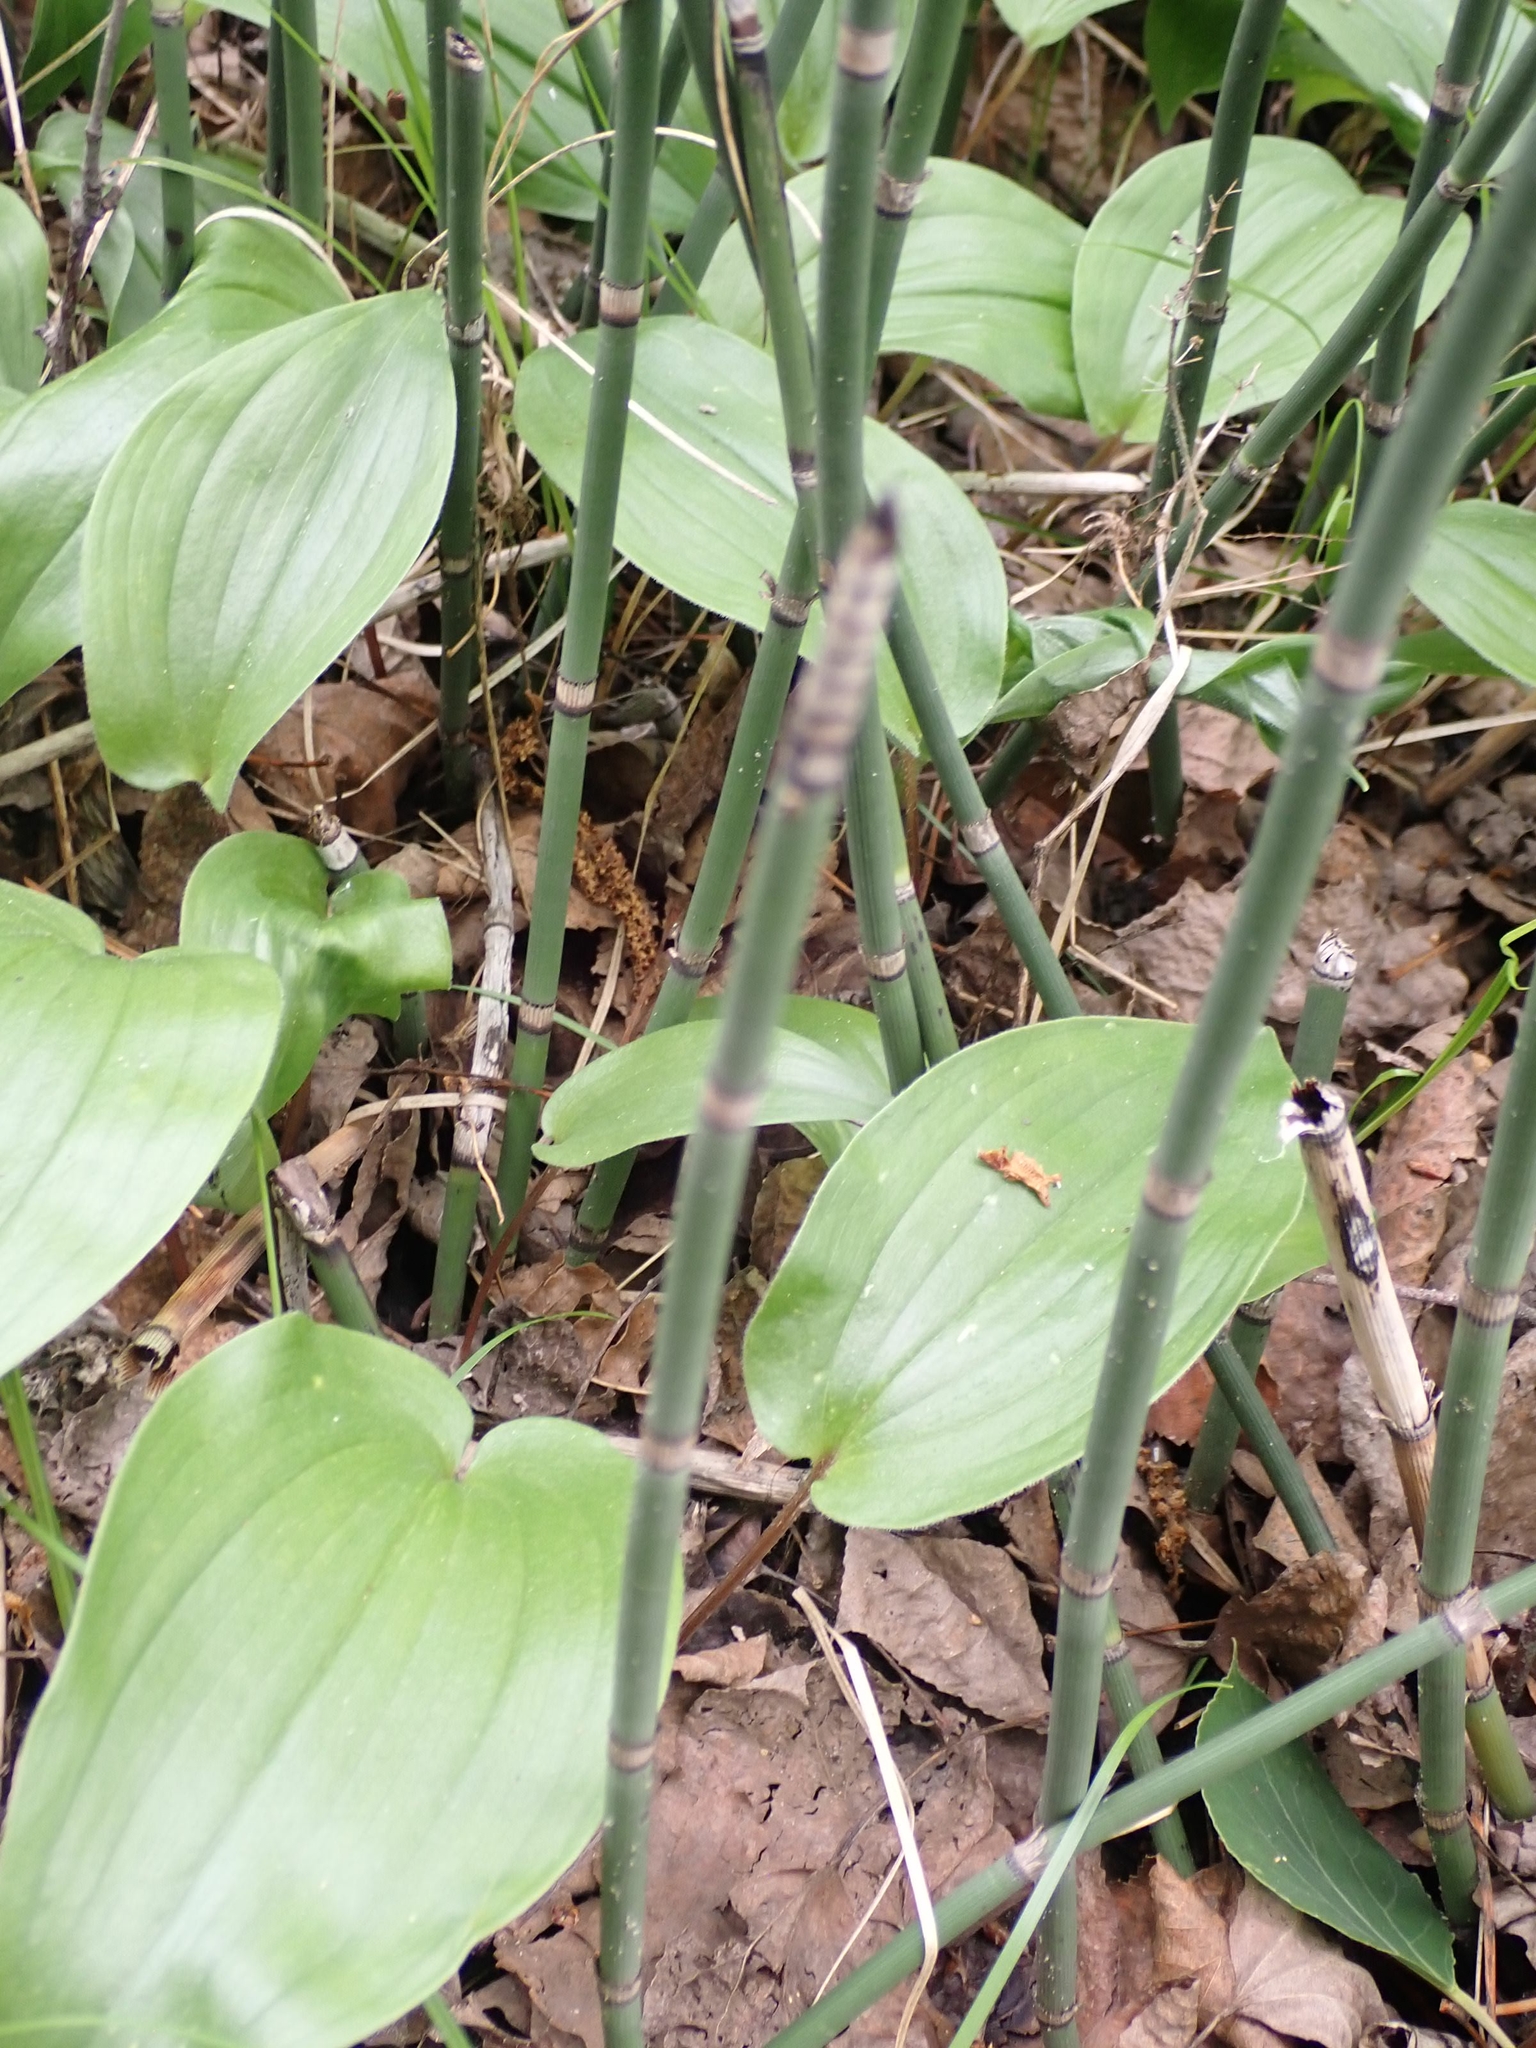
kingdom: Plantae
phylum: Tracheophyta
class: Polypodiopsida
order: Equisetales
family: Equisetaceae
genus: Equisetum
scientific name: Equisetum praealtum
